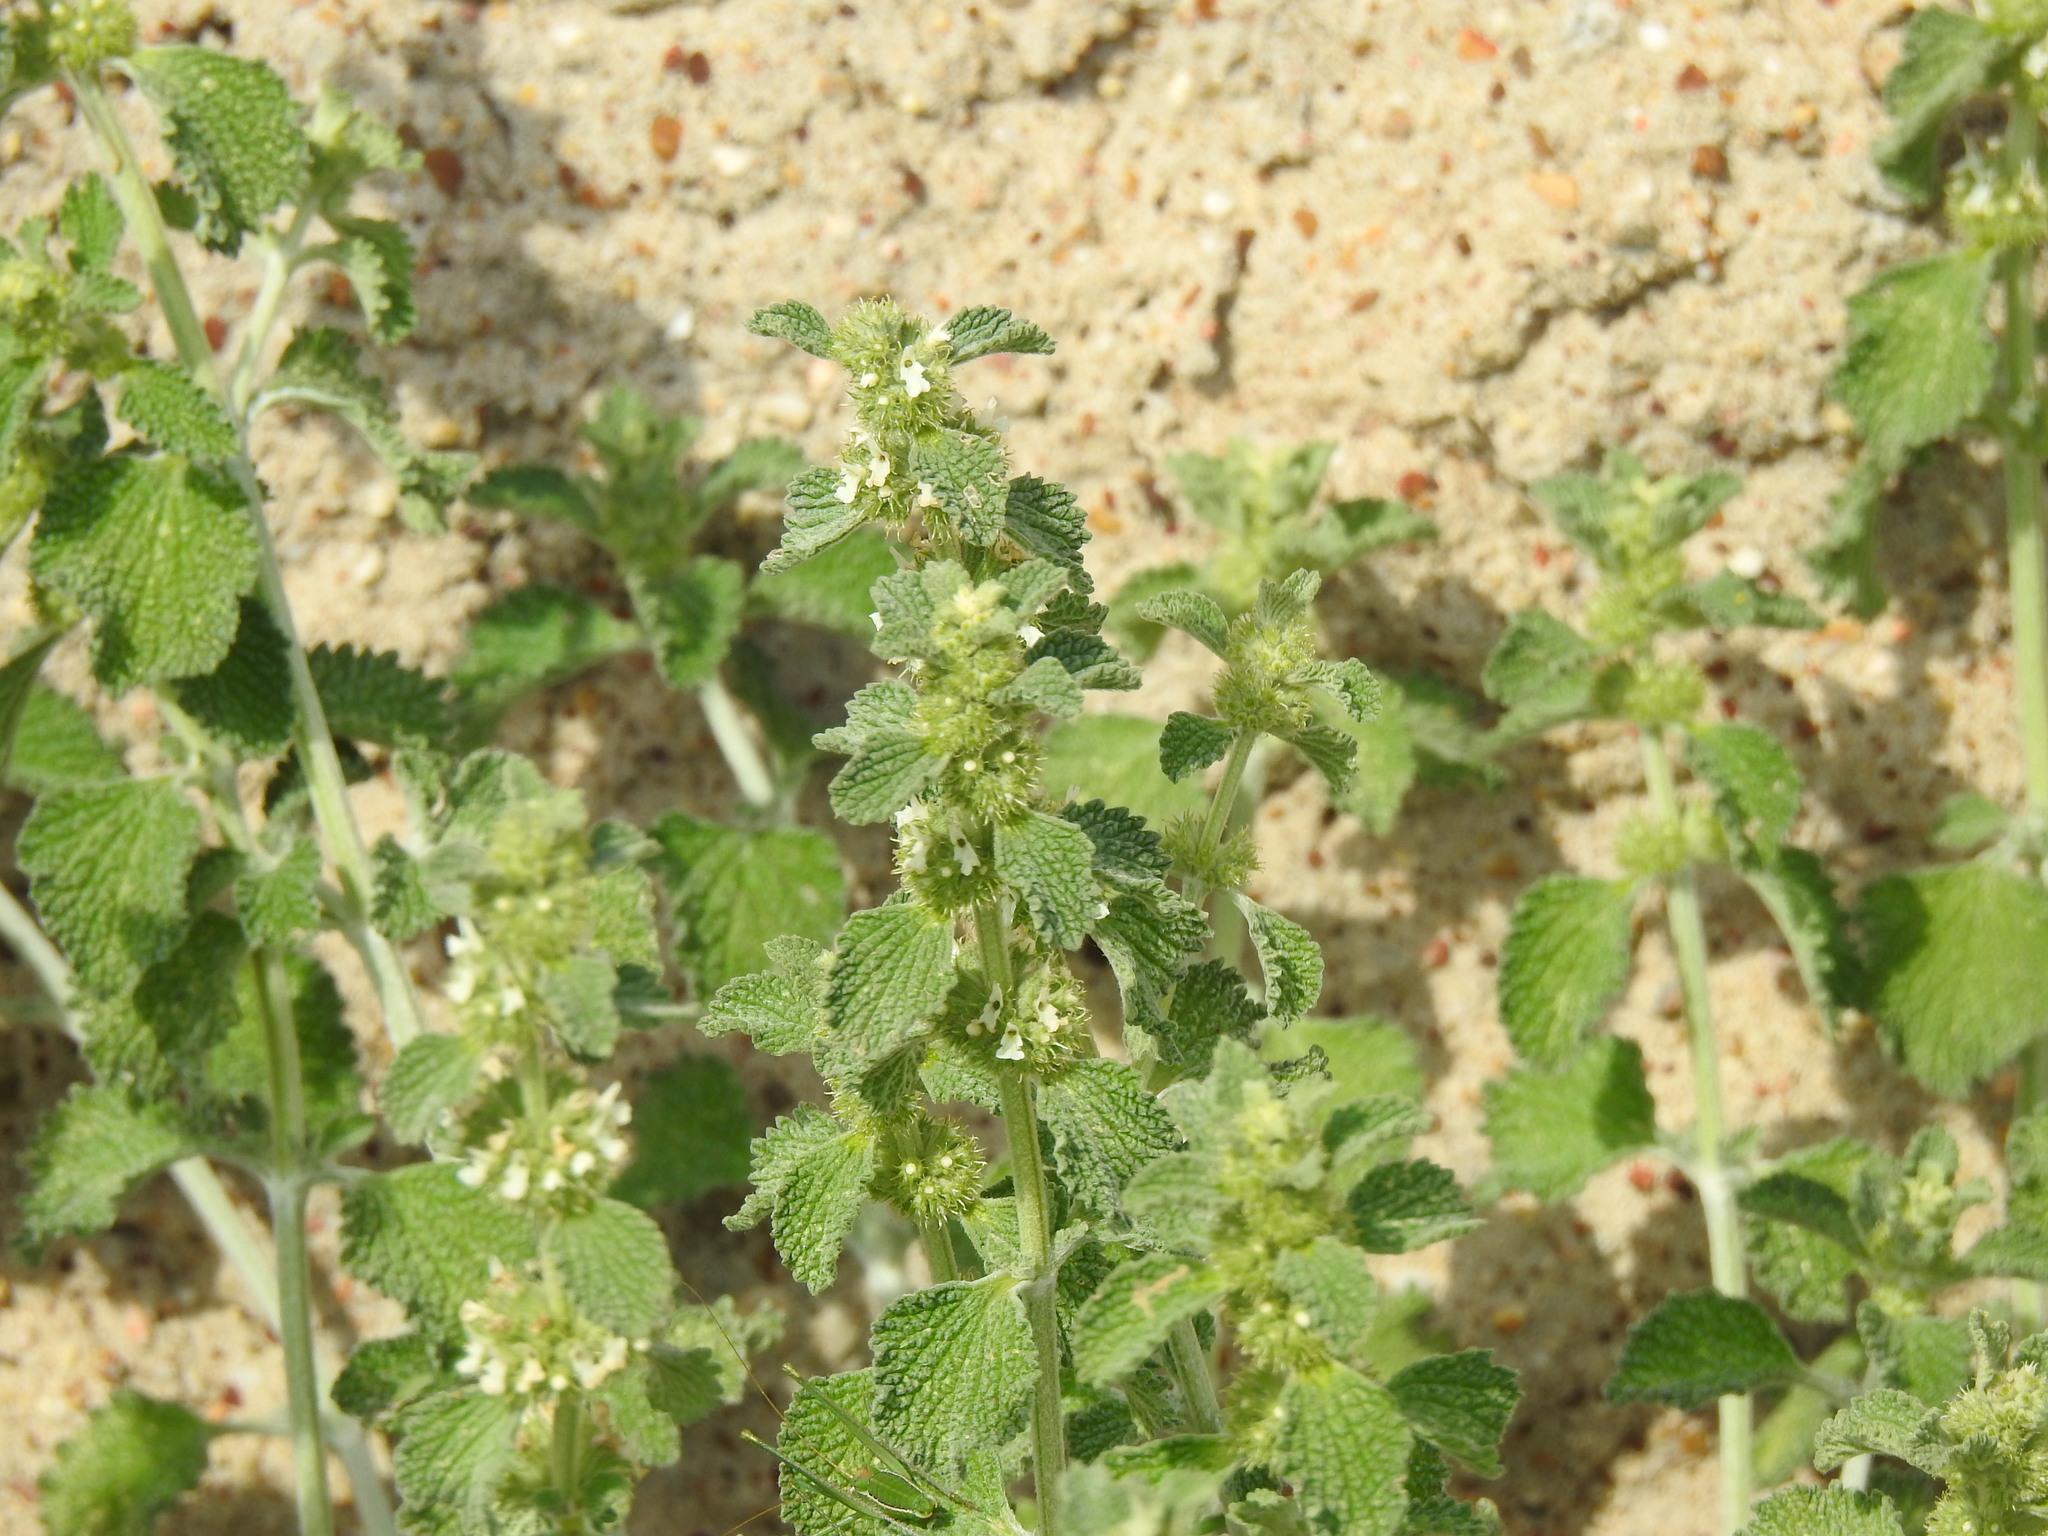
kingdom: Plantae
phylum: Tracheophyta
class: Magnoliopsida
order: Lamiales
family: Lamiaceae
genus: Marrubium
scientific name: Marrubium vulgare
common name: Horehound
